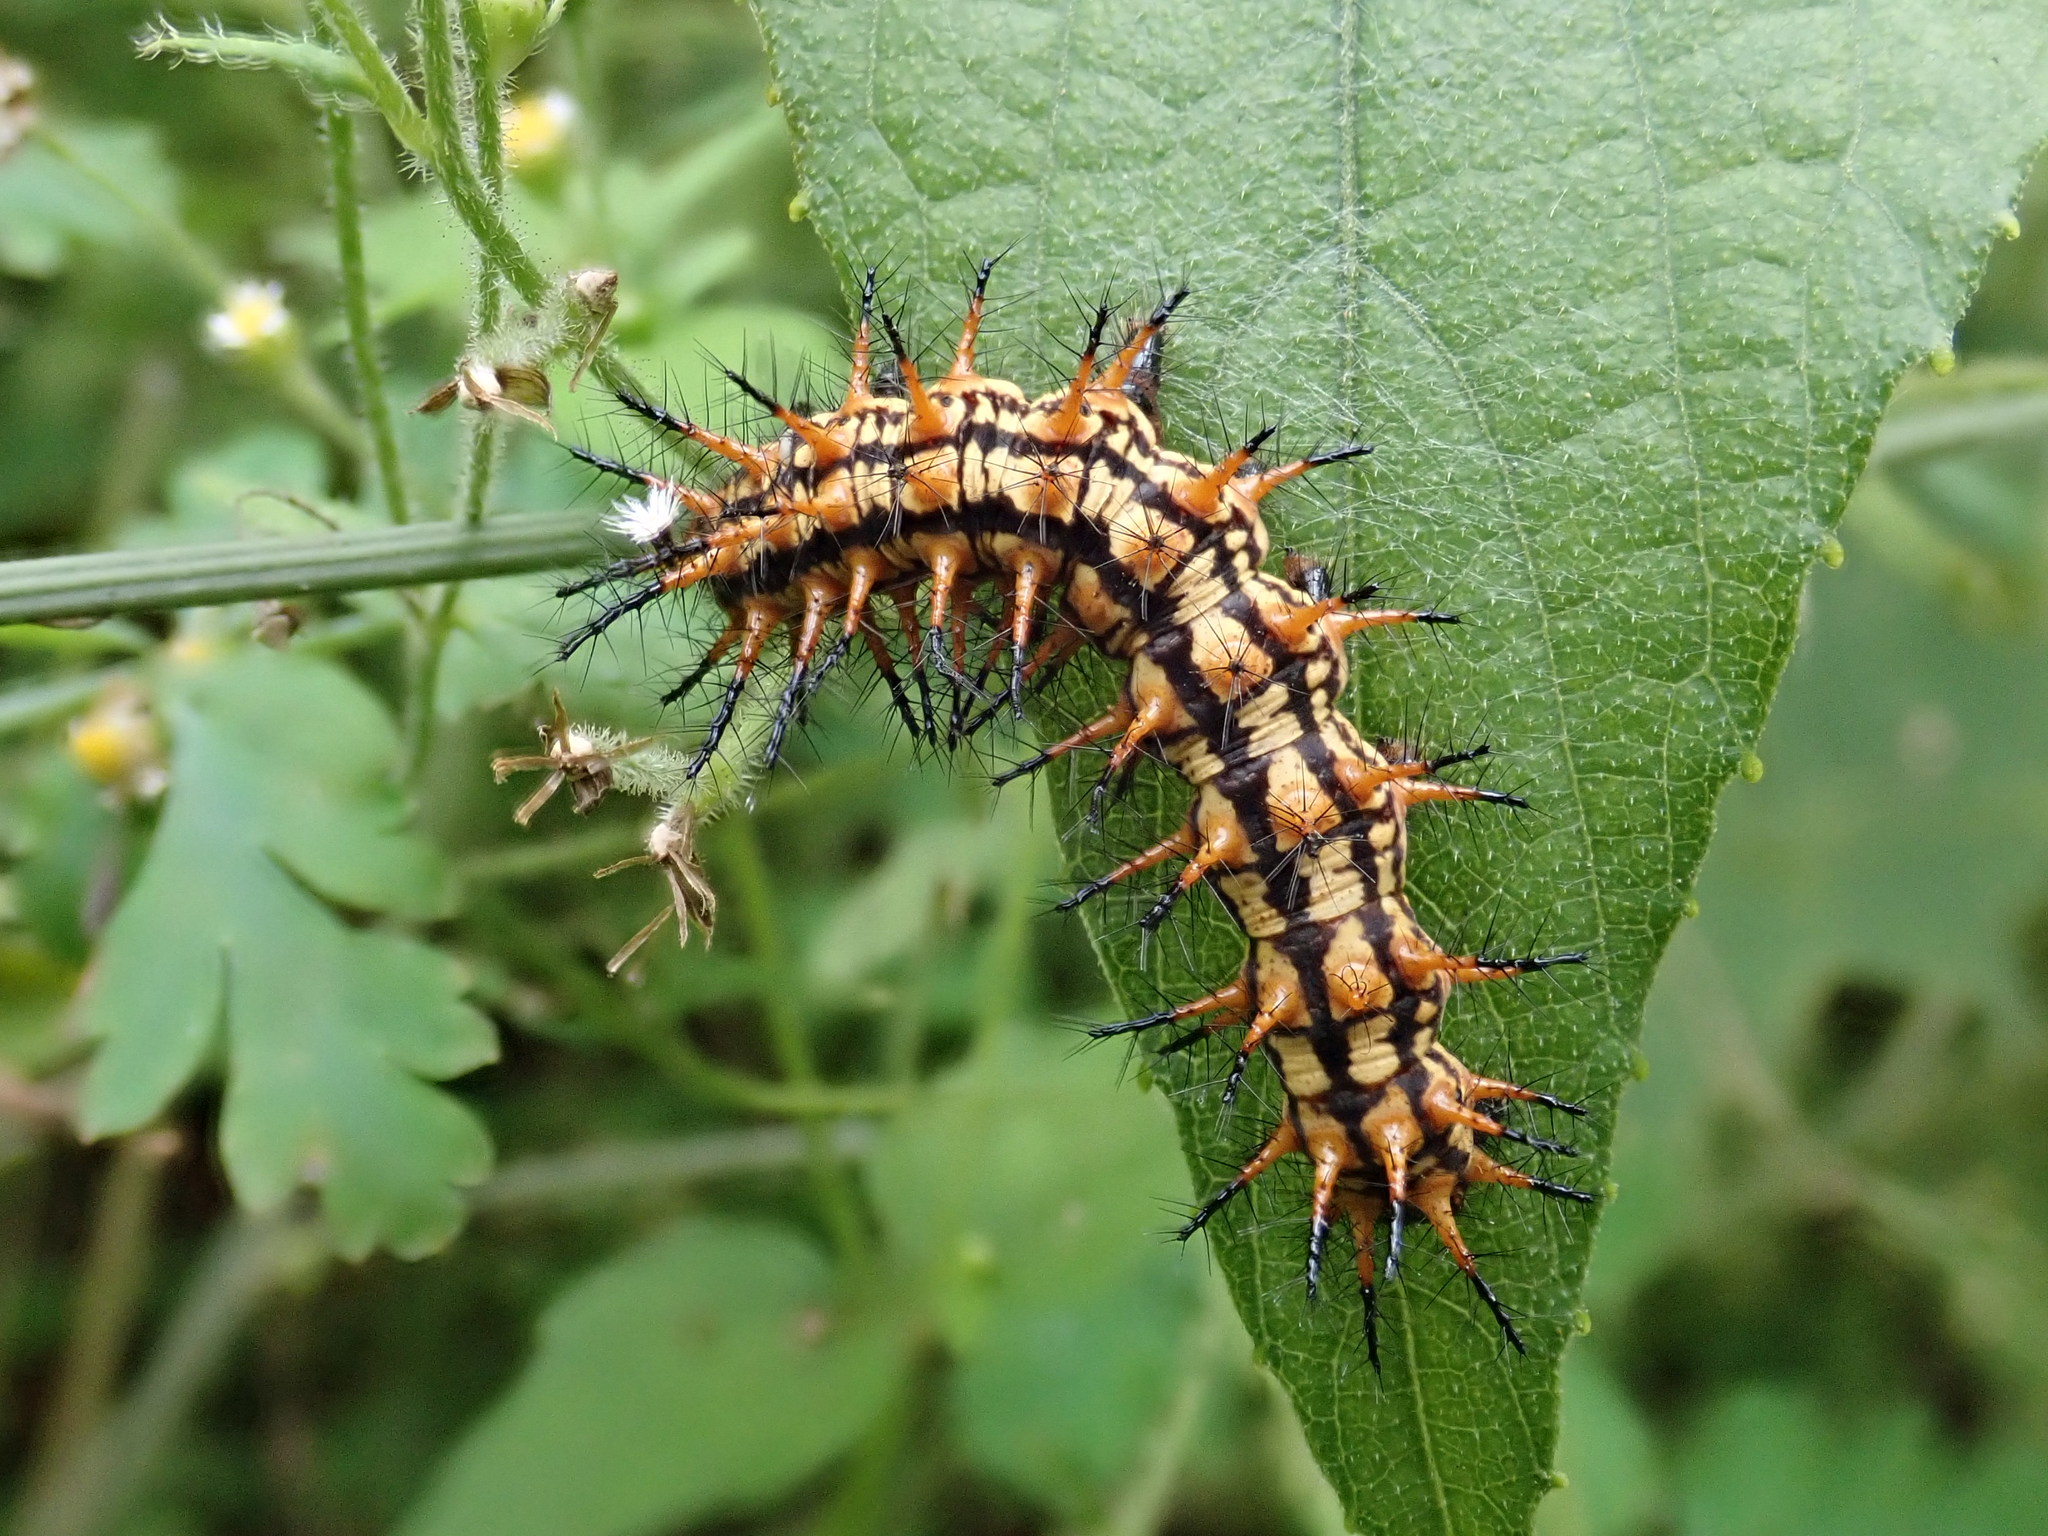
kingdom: Animalia
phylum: Arthropoda
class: Insecta
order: Lepidoptera
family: Nymphalidae
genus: Acraea
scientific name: Acraea Telchinia issoria
